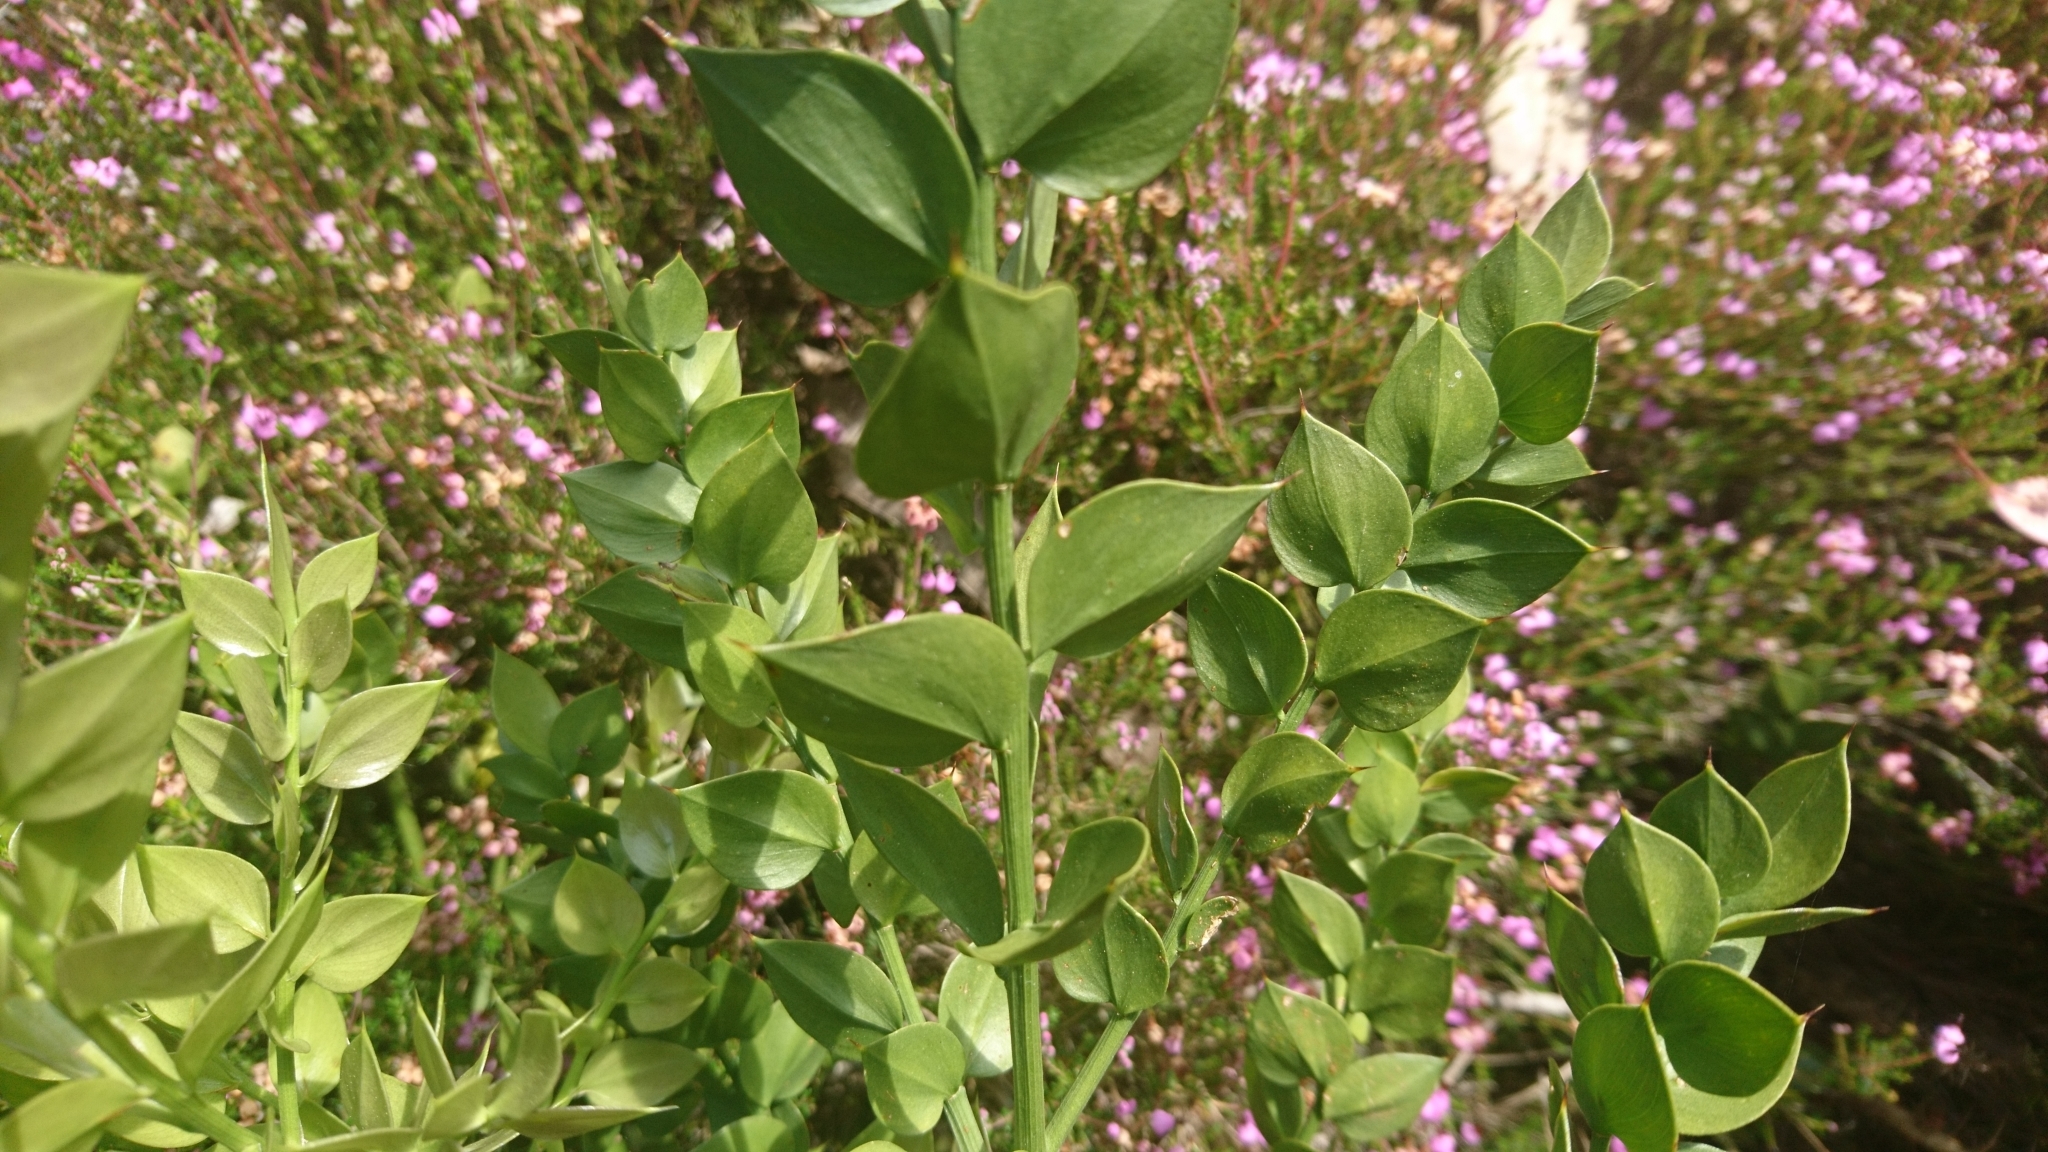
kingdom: Plantae
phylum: Tracheophyta
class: Liliopsida
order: Asparagales
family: Asparagaceae
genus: Ruscus
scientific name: Ruscus aculeatus
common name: Butcher's-broom
